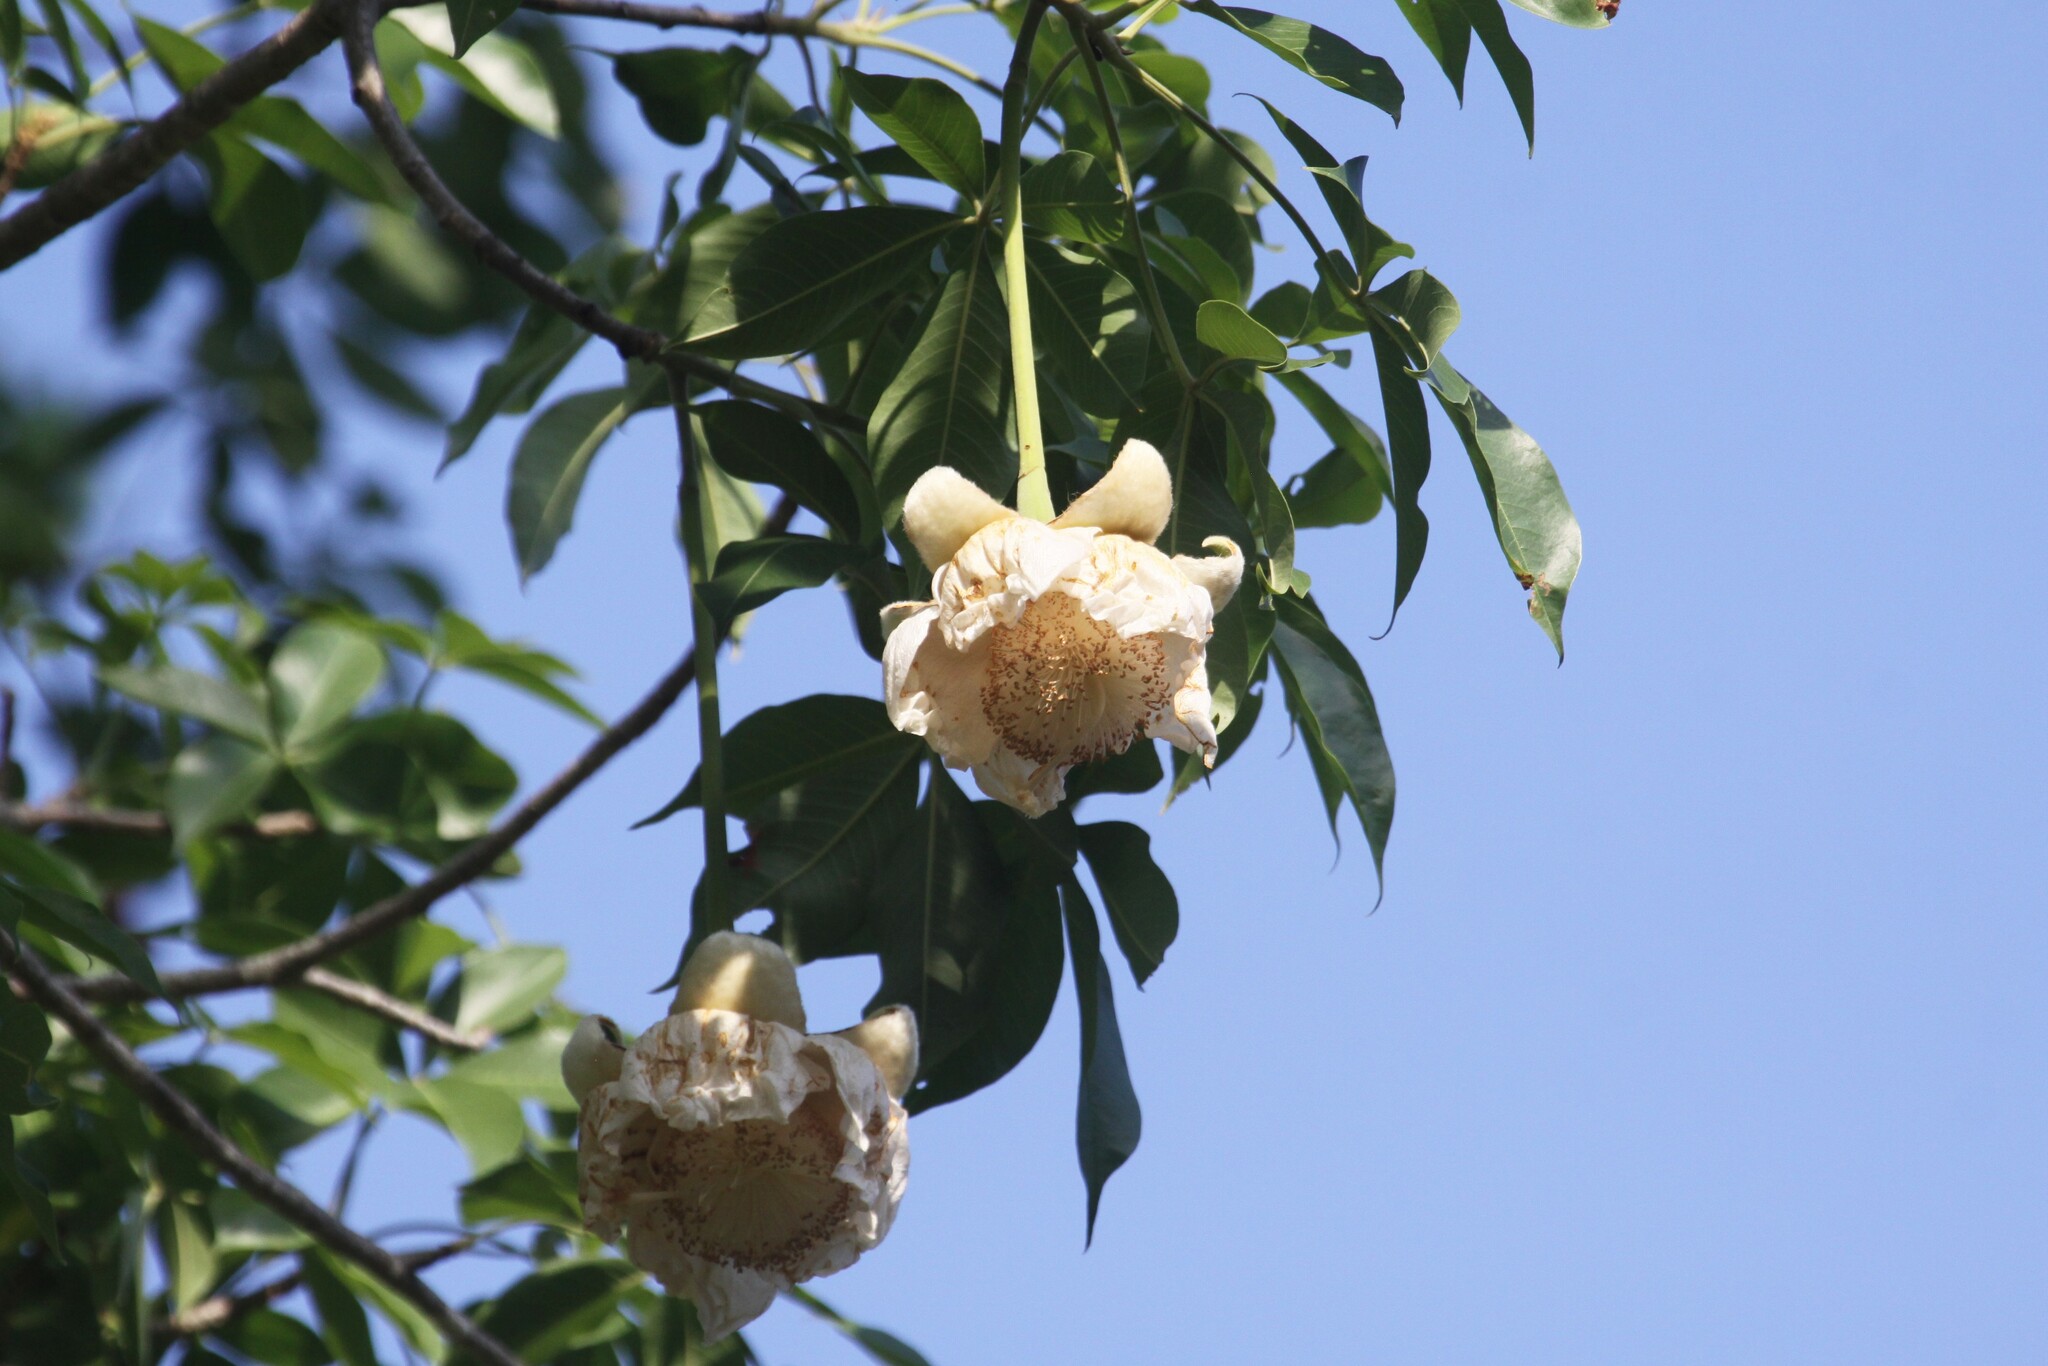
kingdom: Plantae
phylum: Tracheophyta
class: Magnoliopsida
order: Malvales
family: Malvaceae
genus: Adansonia
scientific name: Adansonia digitata
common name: Dead-rat-tree
